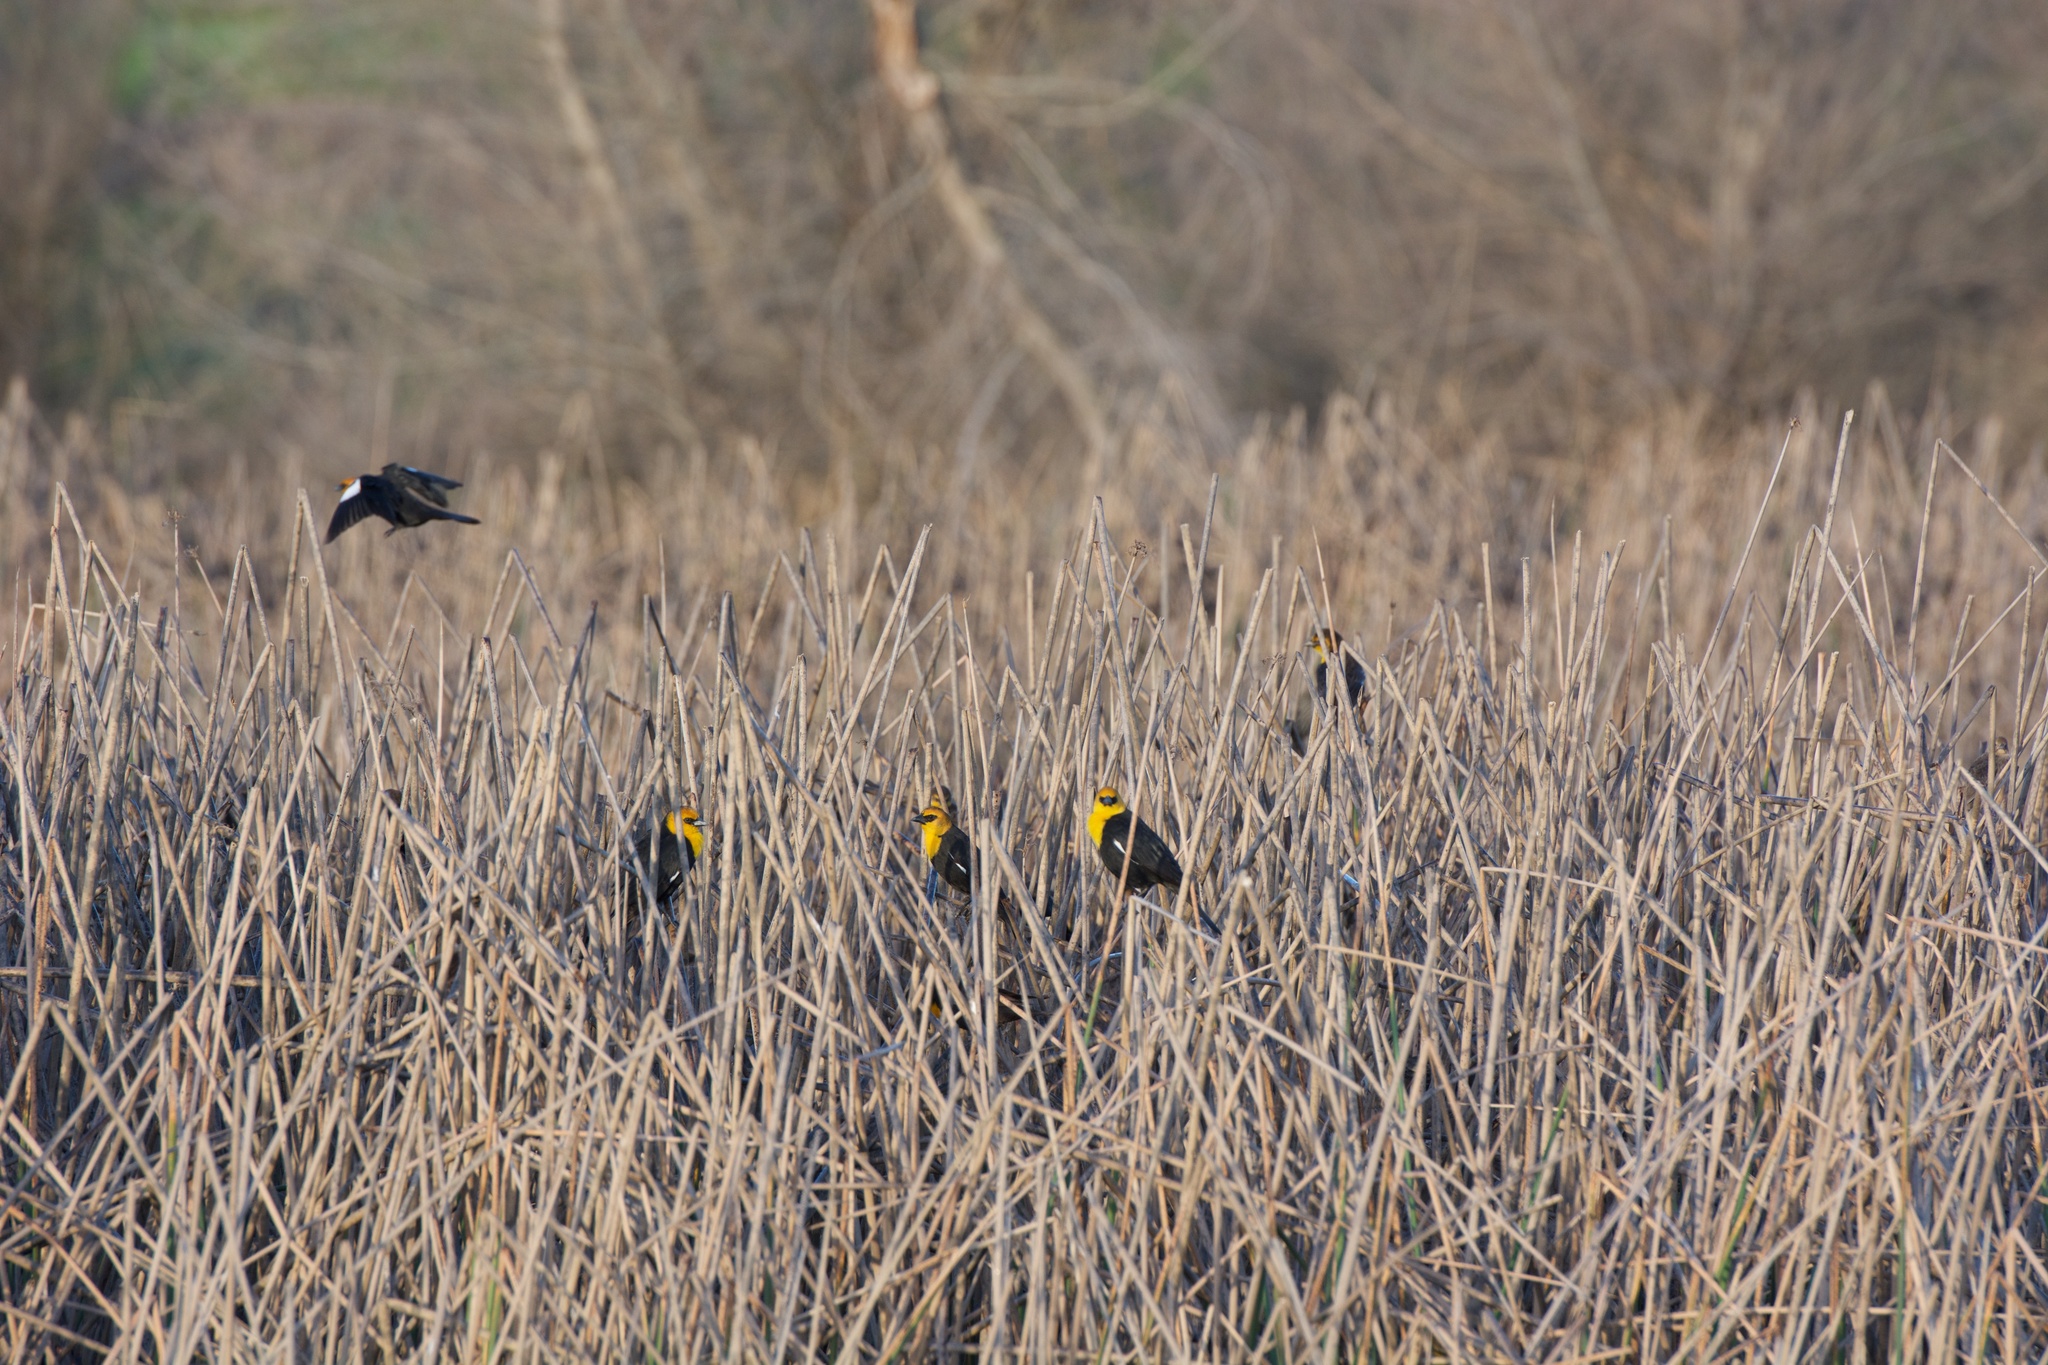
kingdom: Animalia
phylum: Chordata
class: Aves
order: Passeriformes
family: Icteridae
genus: Xanthocephalus
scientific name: Xanthocephalus xanthocephalus
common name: Yellow-headed blackbird
